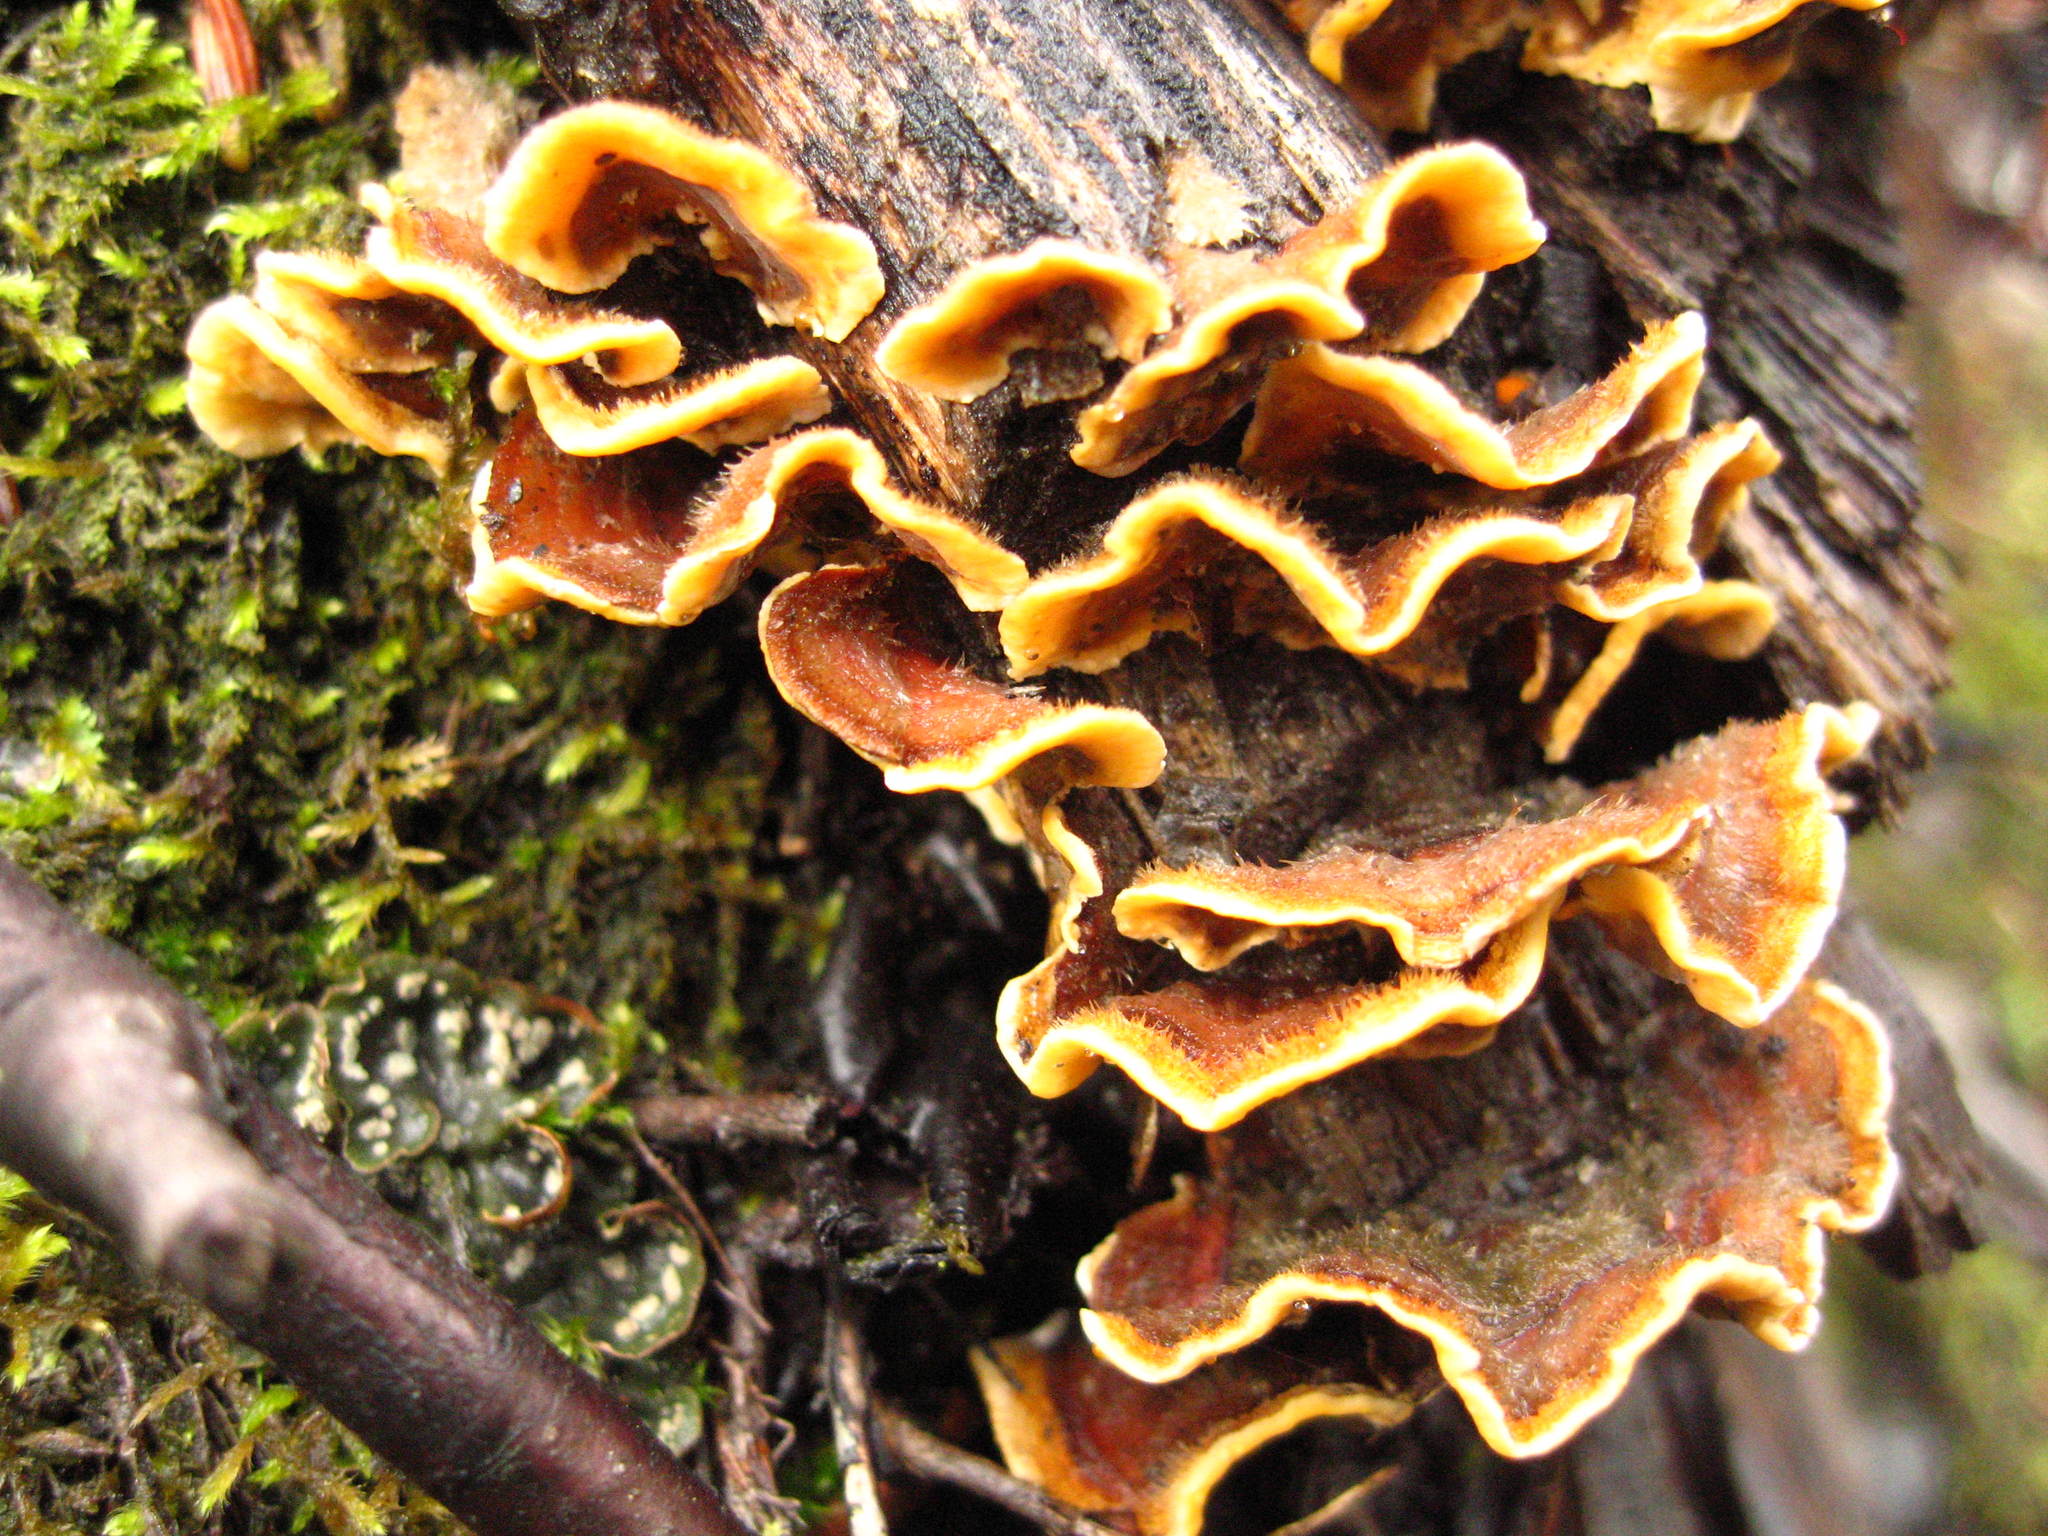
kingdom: Fungi
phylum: Basidiomycota
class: Agaricomycetes
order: Russulales
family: Stereaceae
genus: Stereum
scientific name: Stereum hirsutum
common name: Hairy curtain crust
